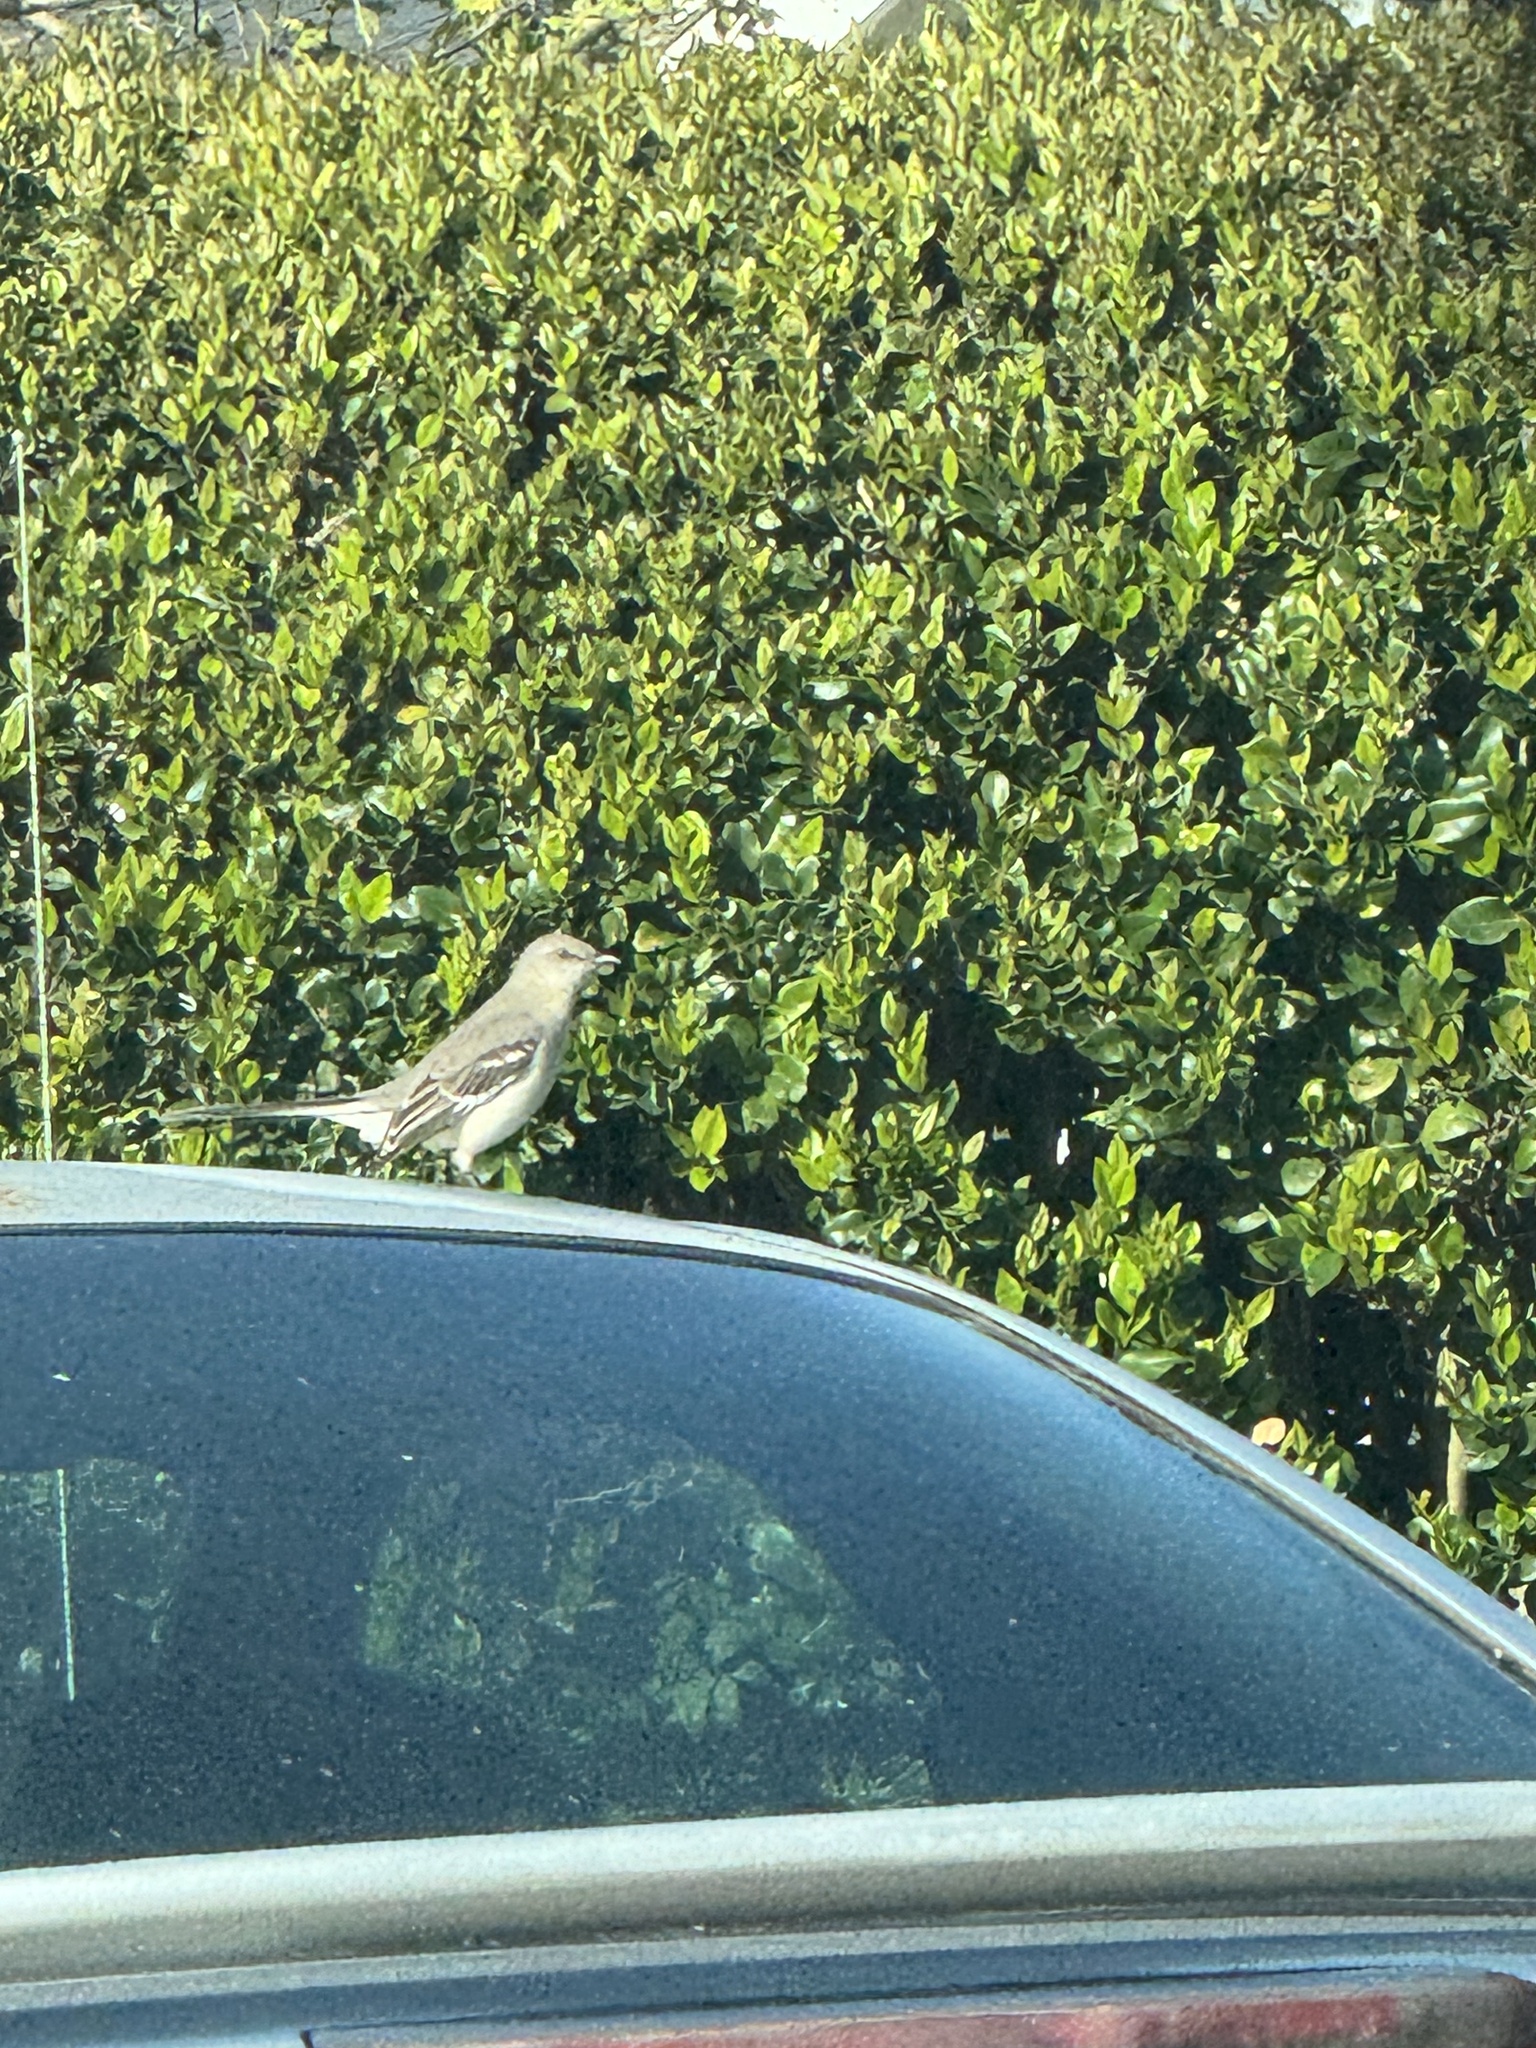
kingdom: Animalia
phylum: Chordata
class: Aves
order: Passeriformes
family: Mimidae
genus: Mimus
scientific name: Mimus polyglottos
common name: Northern mockingbird
